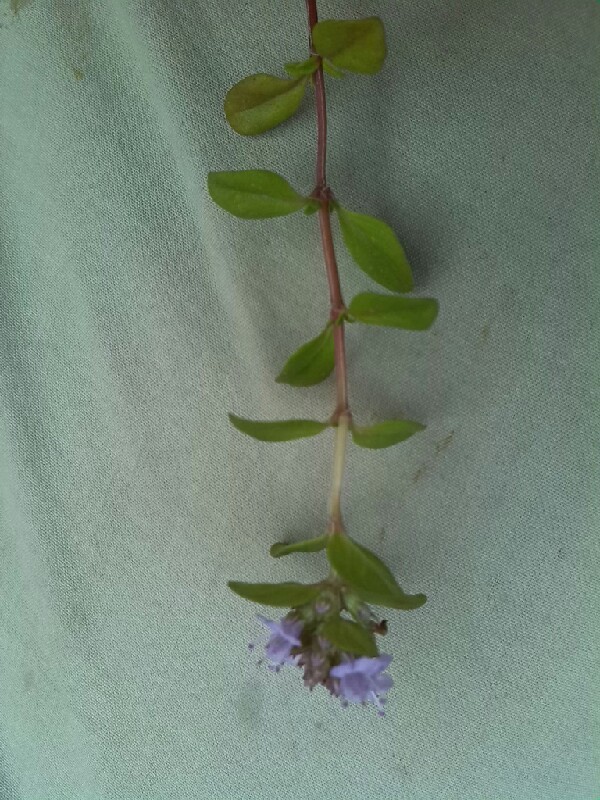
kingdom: Plantae
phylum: Tracheophyta
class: Magnoliopsida
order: Lamiales
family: Lamiaceae
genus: Thymus
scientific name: Thymus pulegioides
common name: Large thyme
